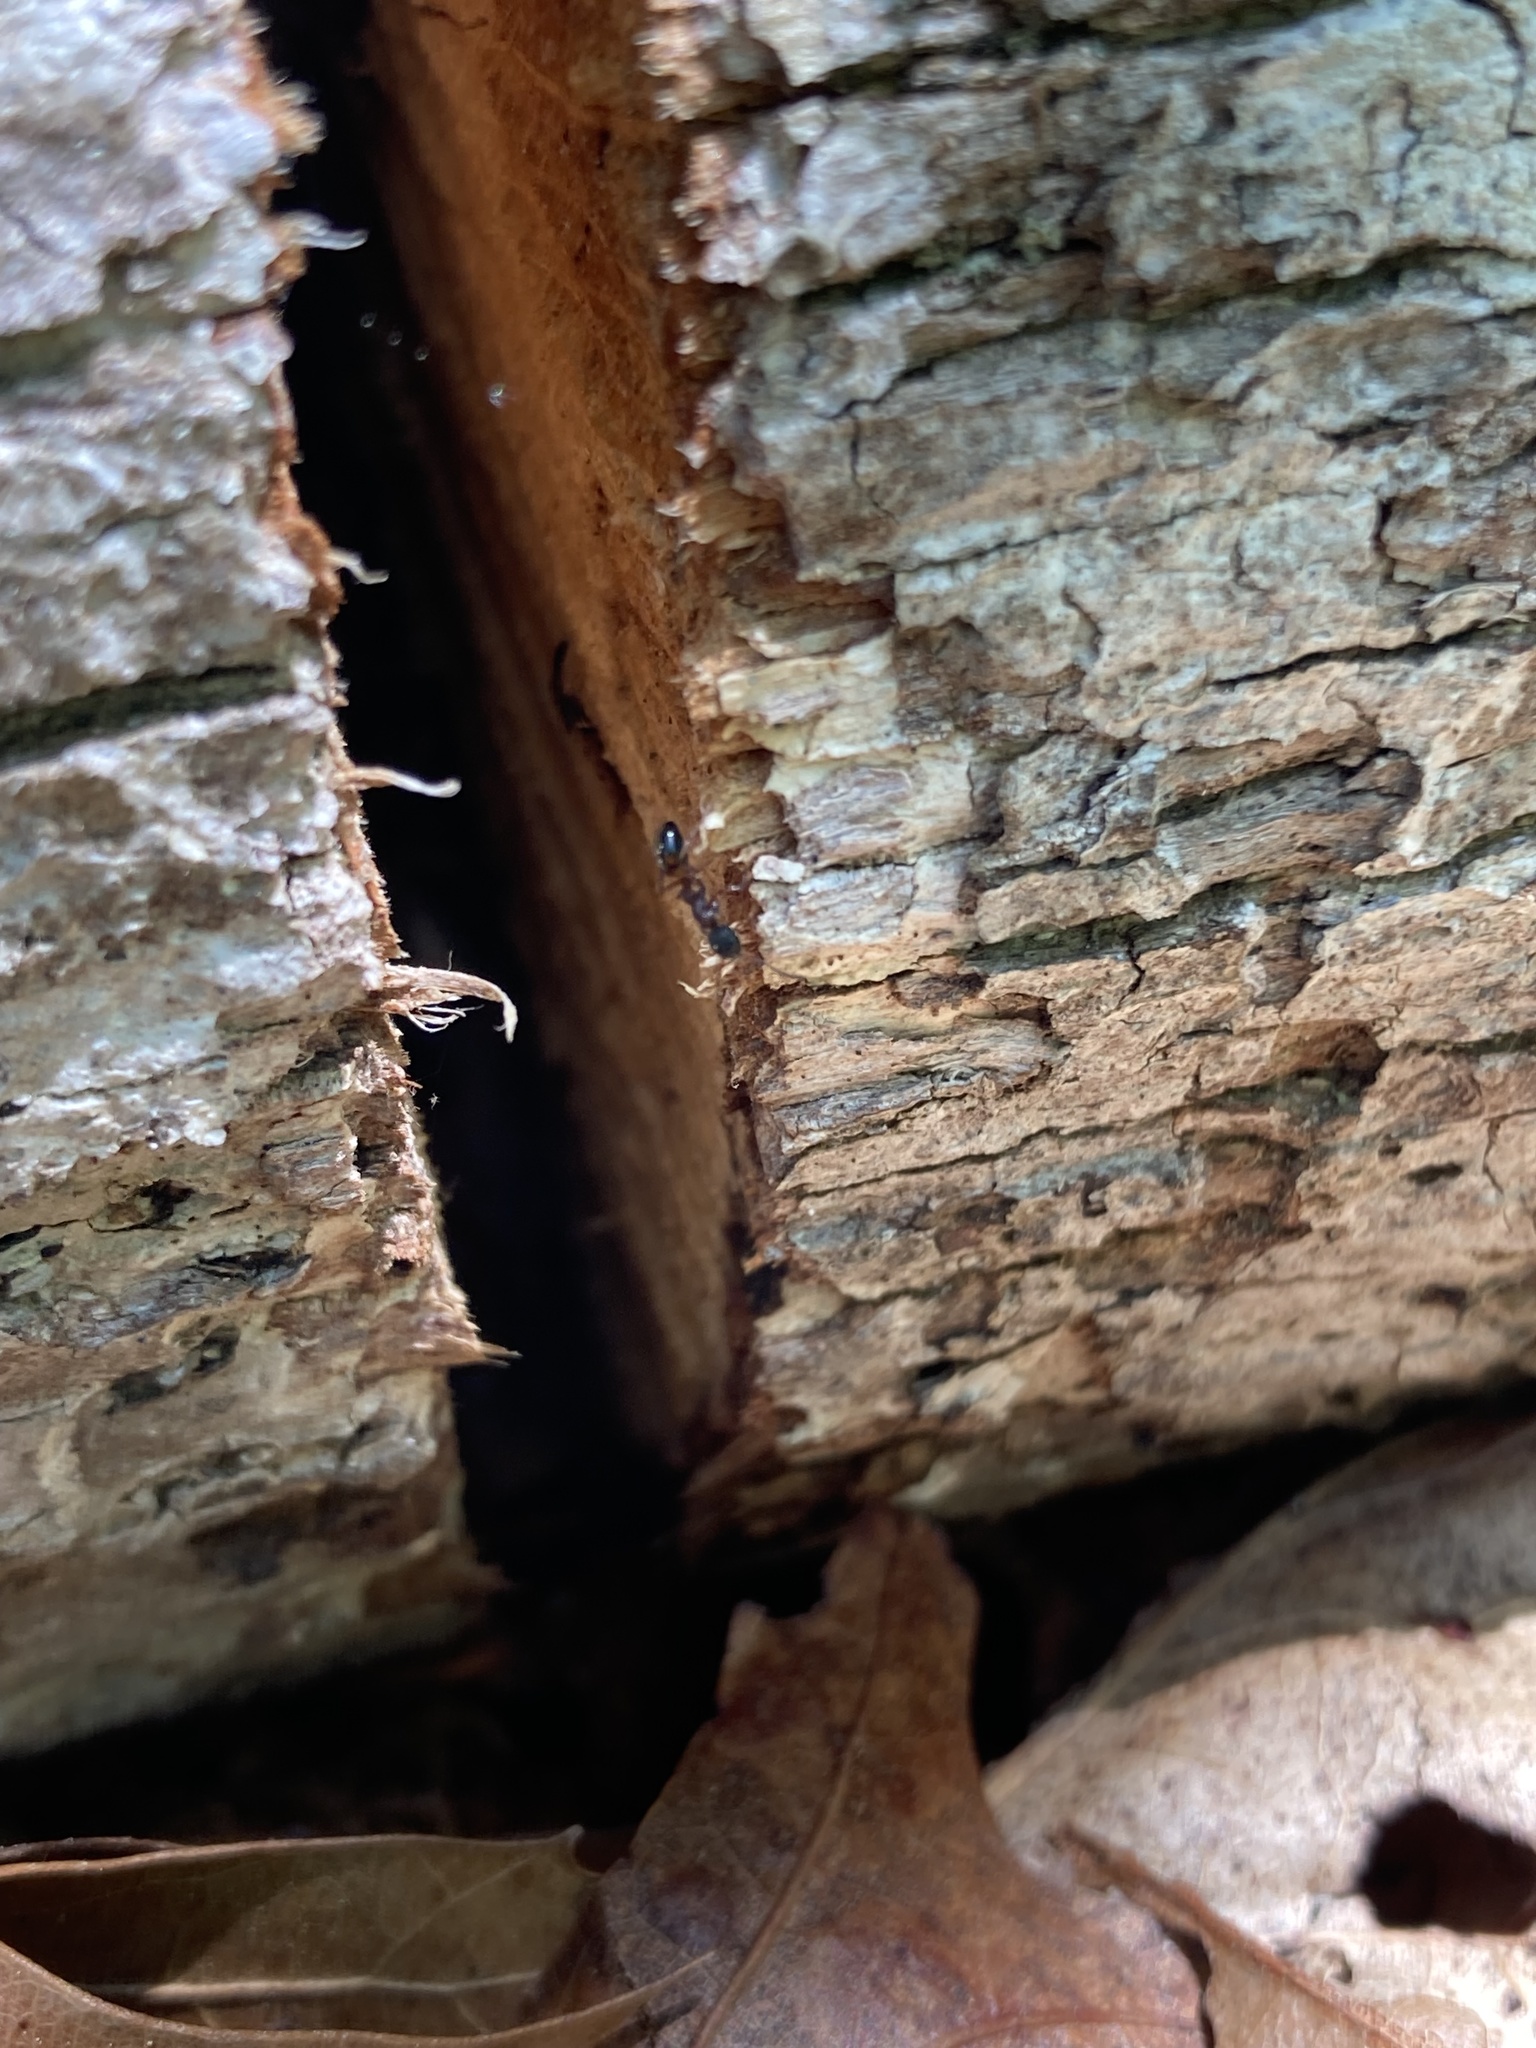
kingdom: Animalia
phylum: Arthropoda
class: Insecta
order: Hymenoptera
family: Formicidae
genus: Dolichoderus
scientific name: Dolichoderus plagiatus
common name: Mottled dolichoderus
